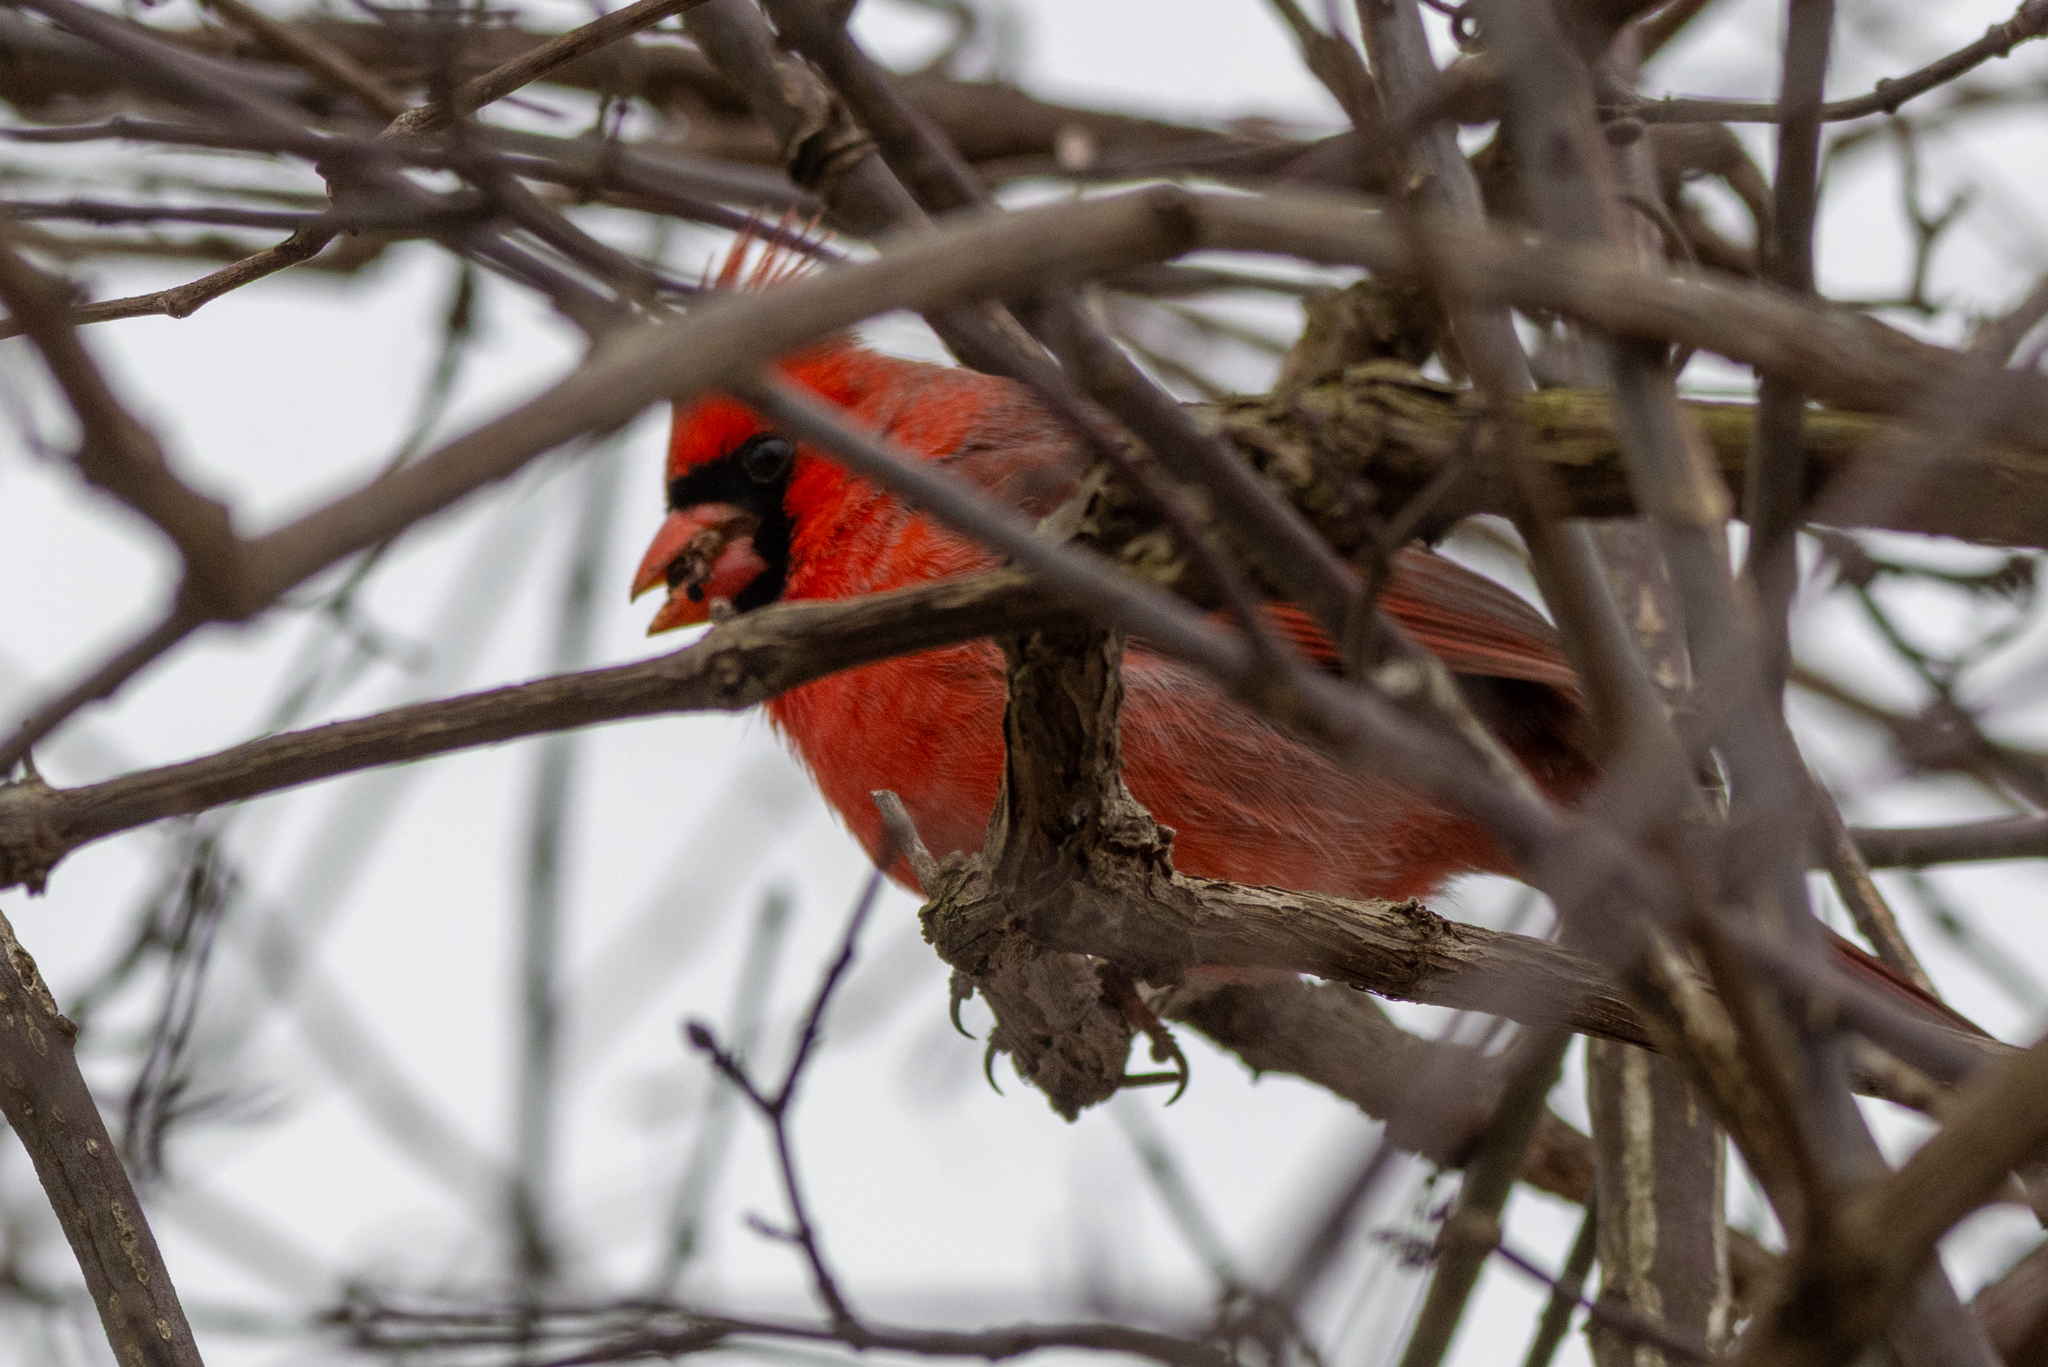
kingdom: Animalia
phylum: Chordata
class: Aves
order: Passeriformes
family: Cardinalidae
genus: Cardinalis
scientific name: Cardinalis cardinalis
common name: Northern cardinal
